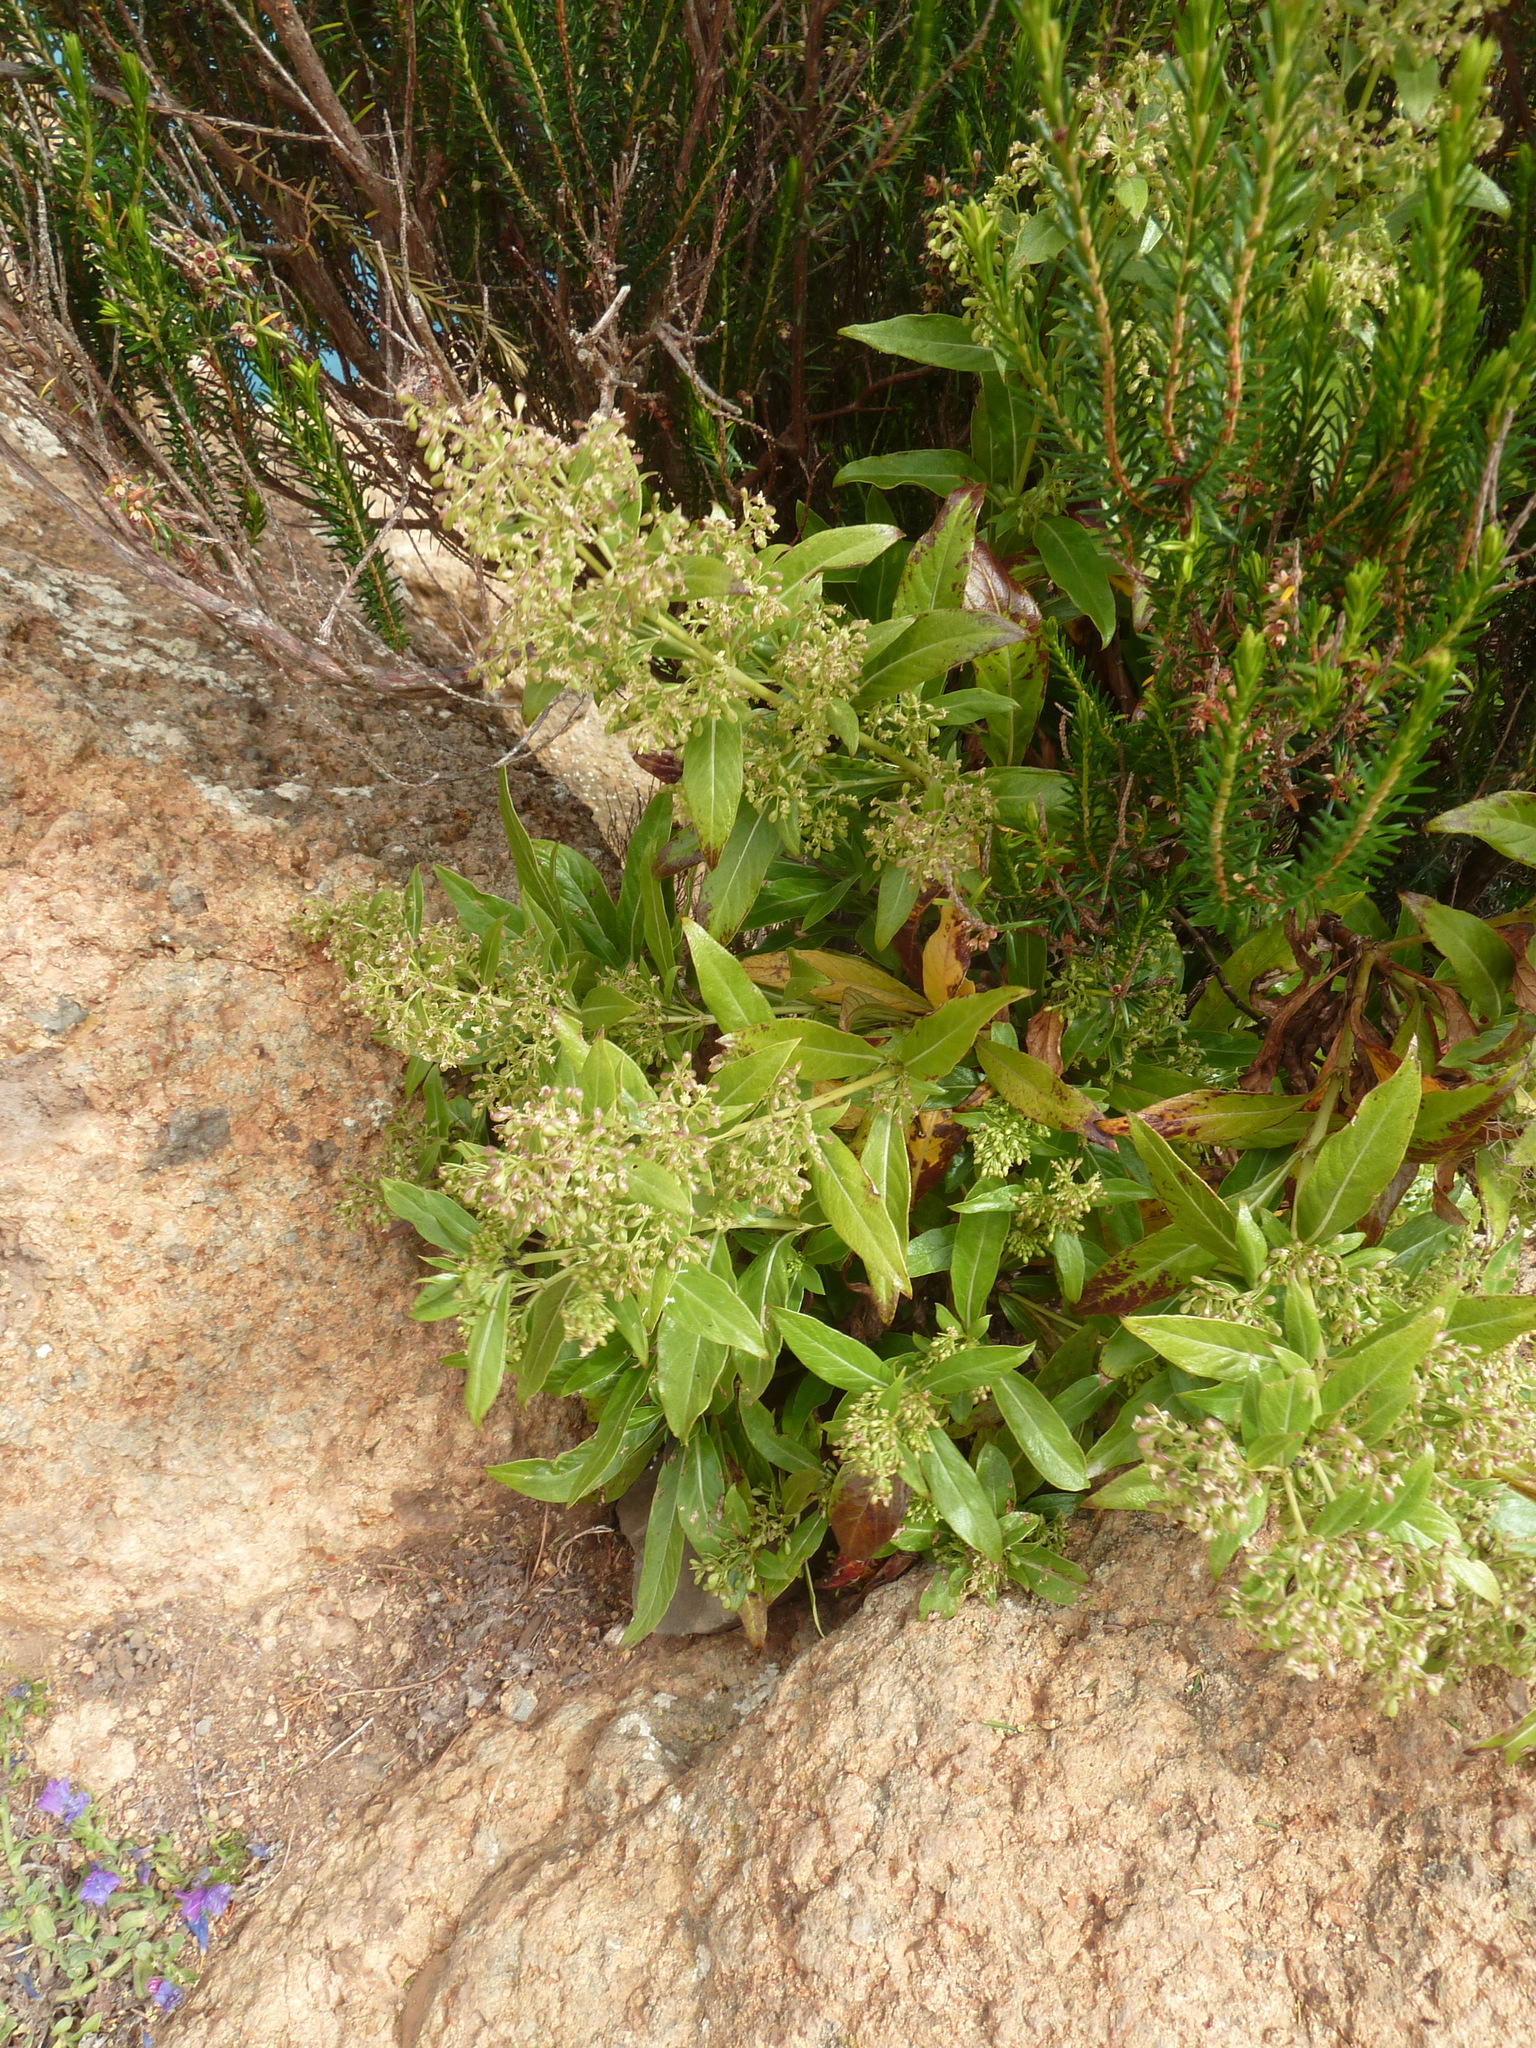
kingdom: Plantae
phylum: Tracheophyta
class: Magnoliopsida
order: Gentianales
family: Rubiaceae
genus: Phyllis
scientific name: Phyllis nobla
